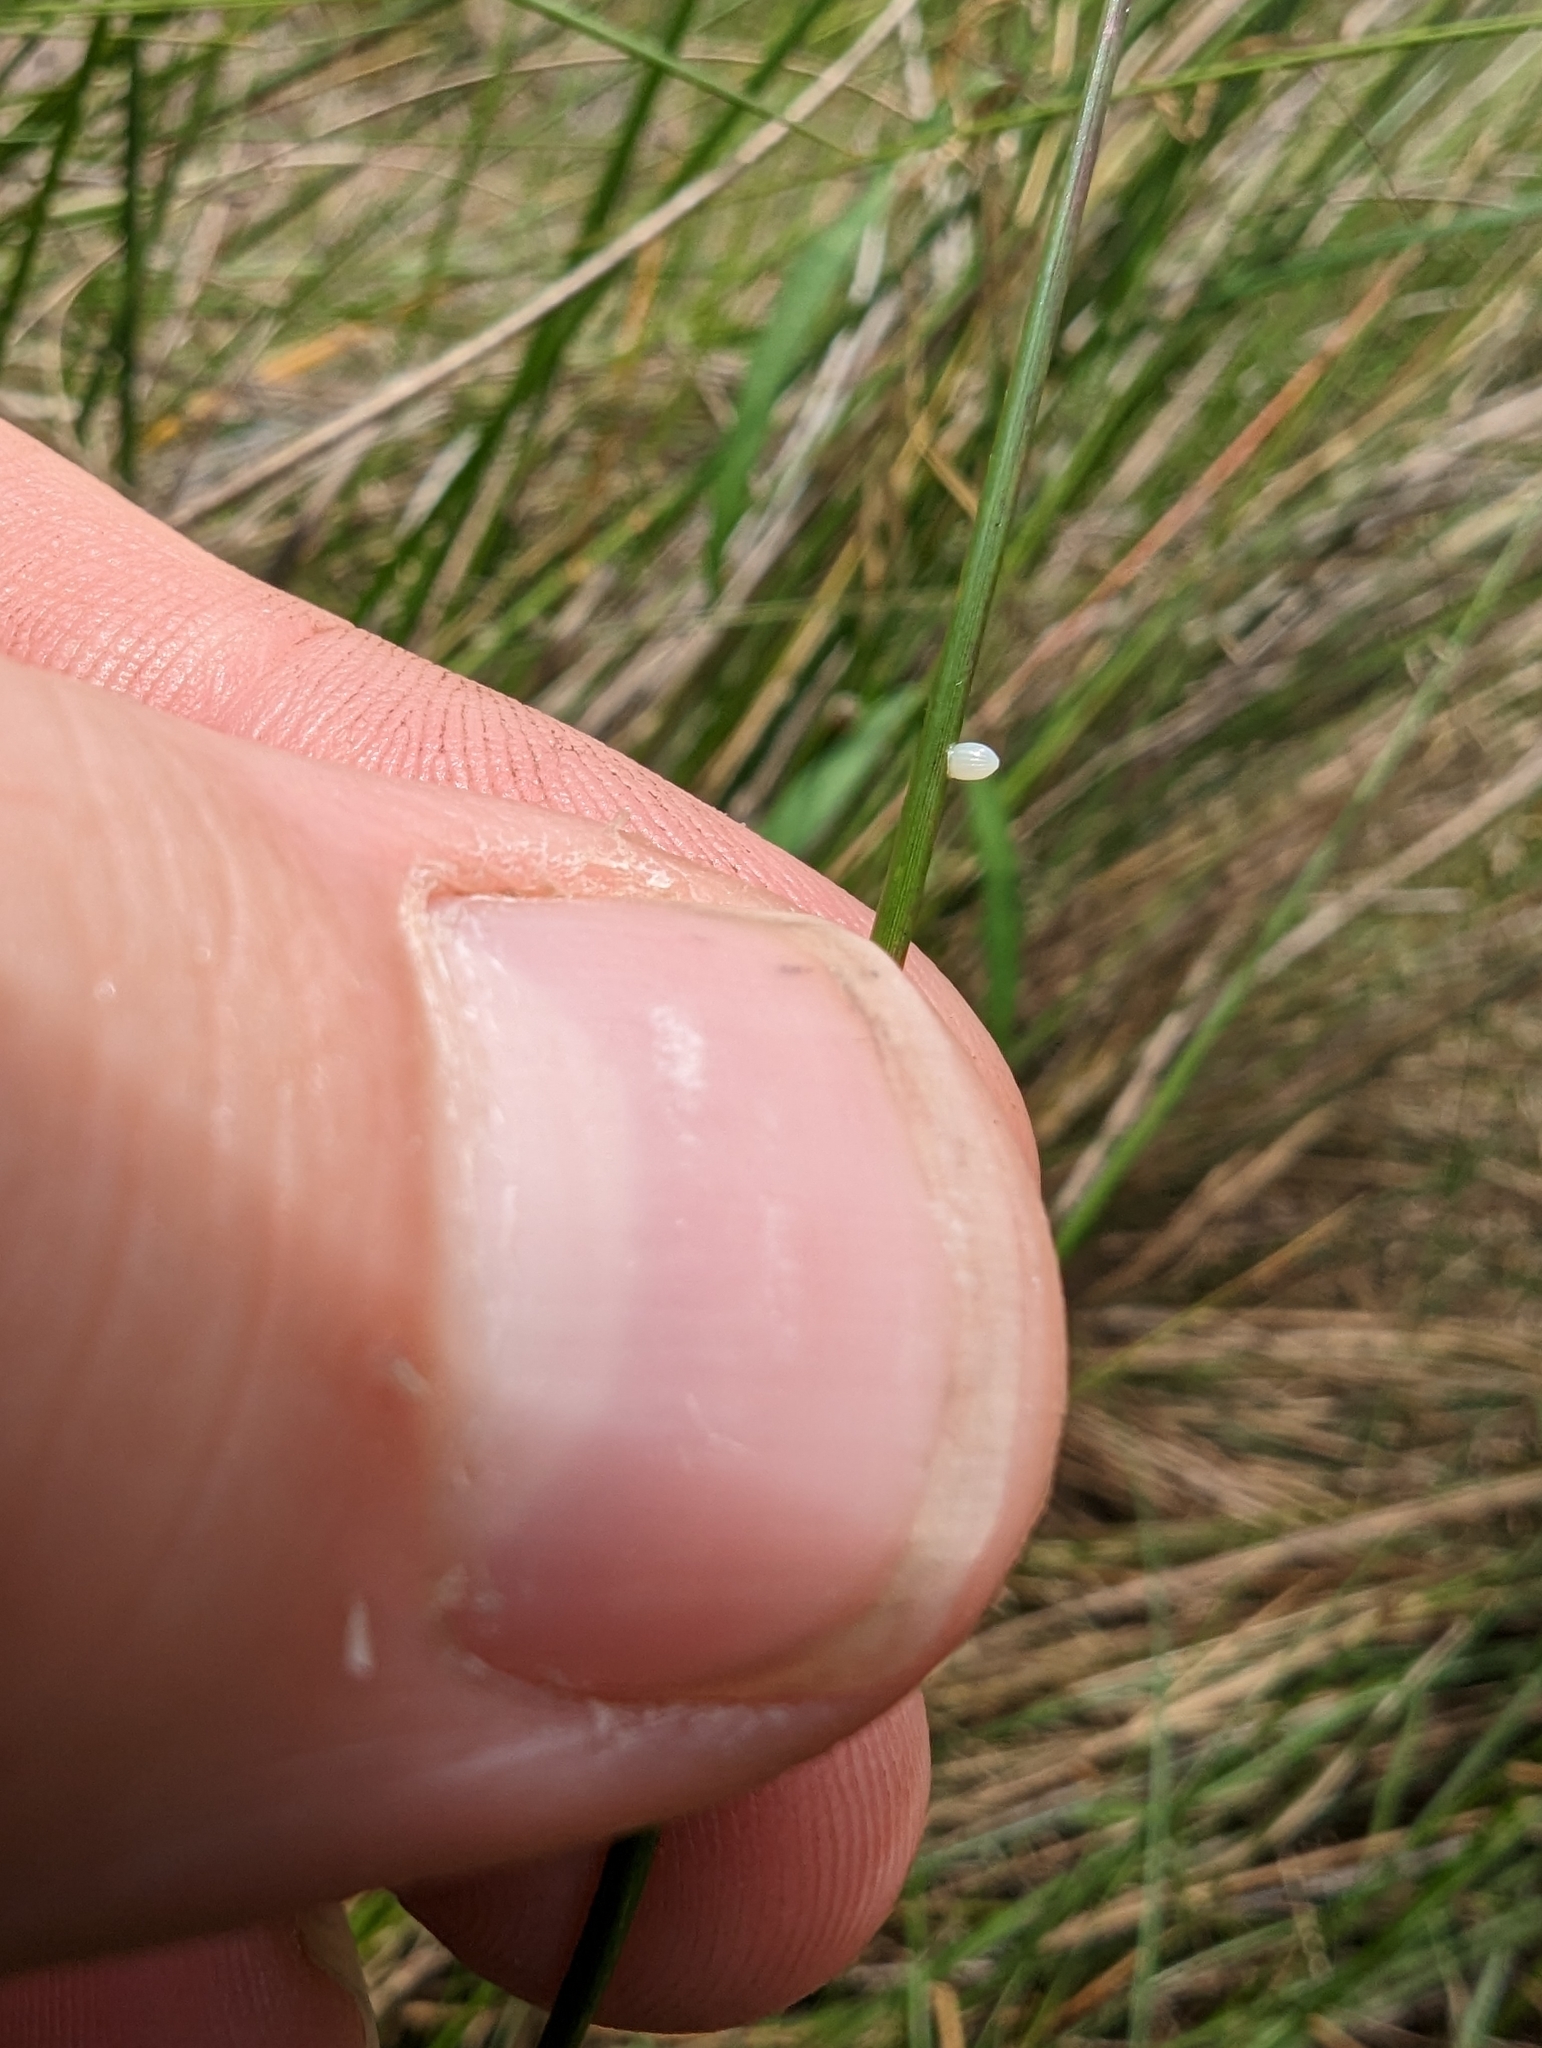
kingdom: Animalia
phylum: Arthropoda
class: Insecta
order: Lepidoptera
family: Nymphalidae
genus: Danaus
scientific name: Danaus gilippus
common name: Queen
